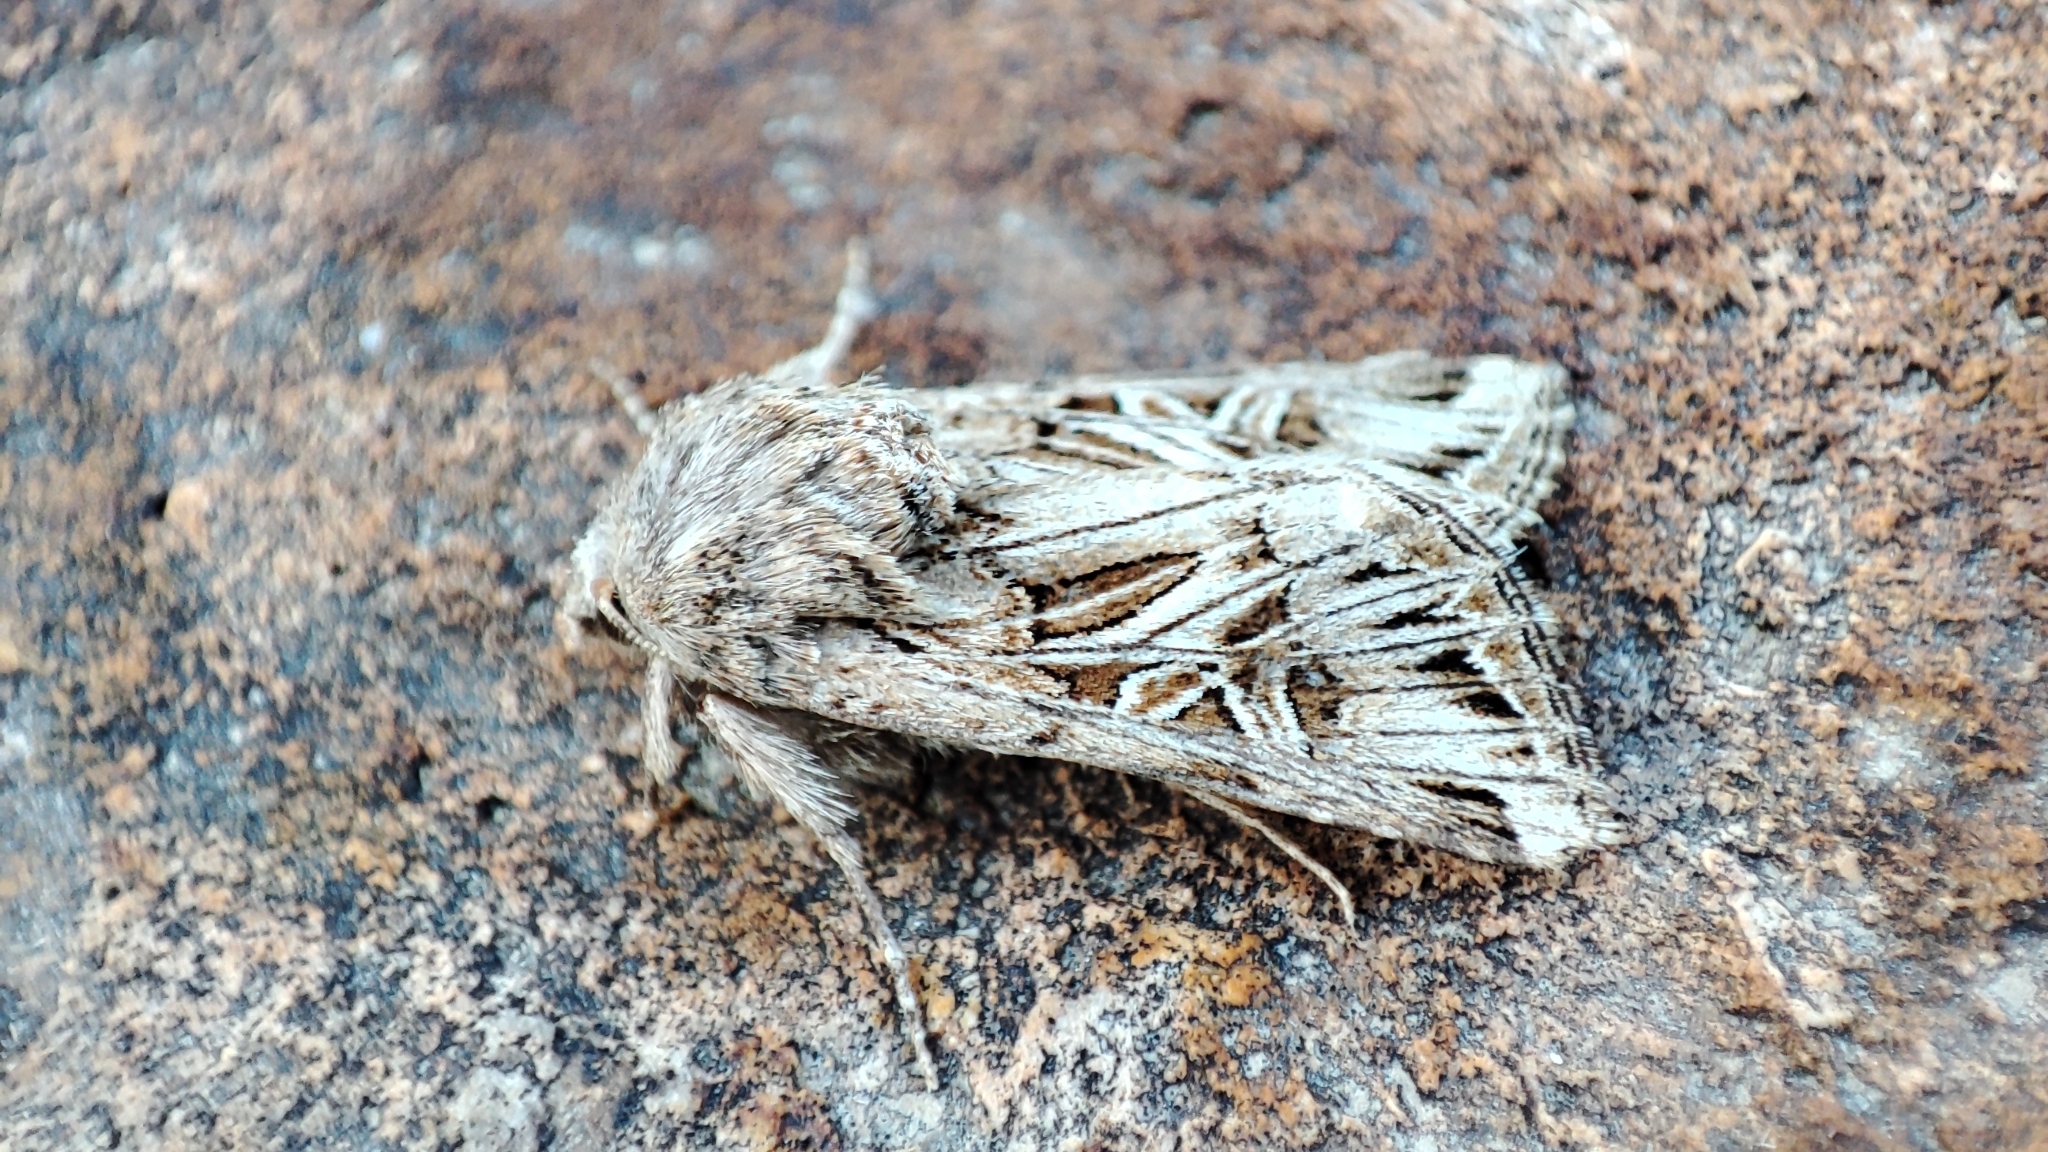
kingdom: Animalia
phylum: Arthropoda
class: Insecta
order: Lepidoptera
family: Noctuidae
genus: Anarta
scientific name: Anarta dianthi
